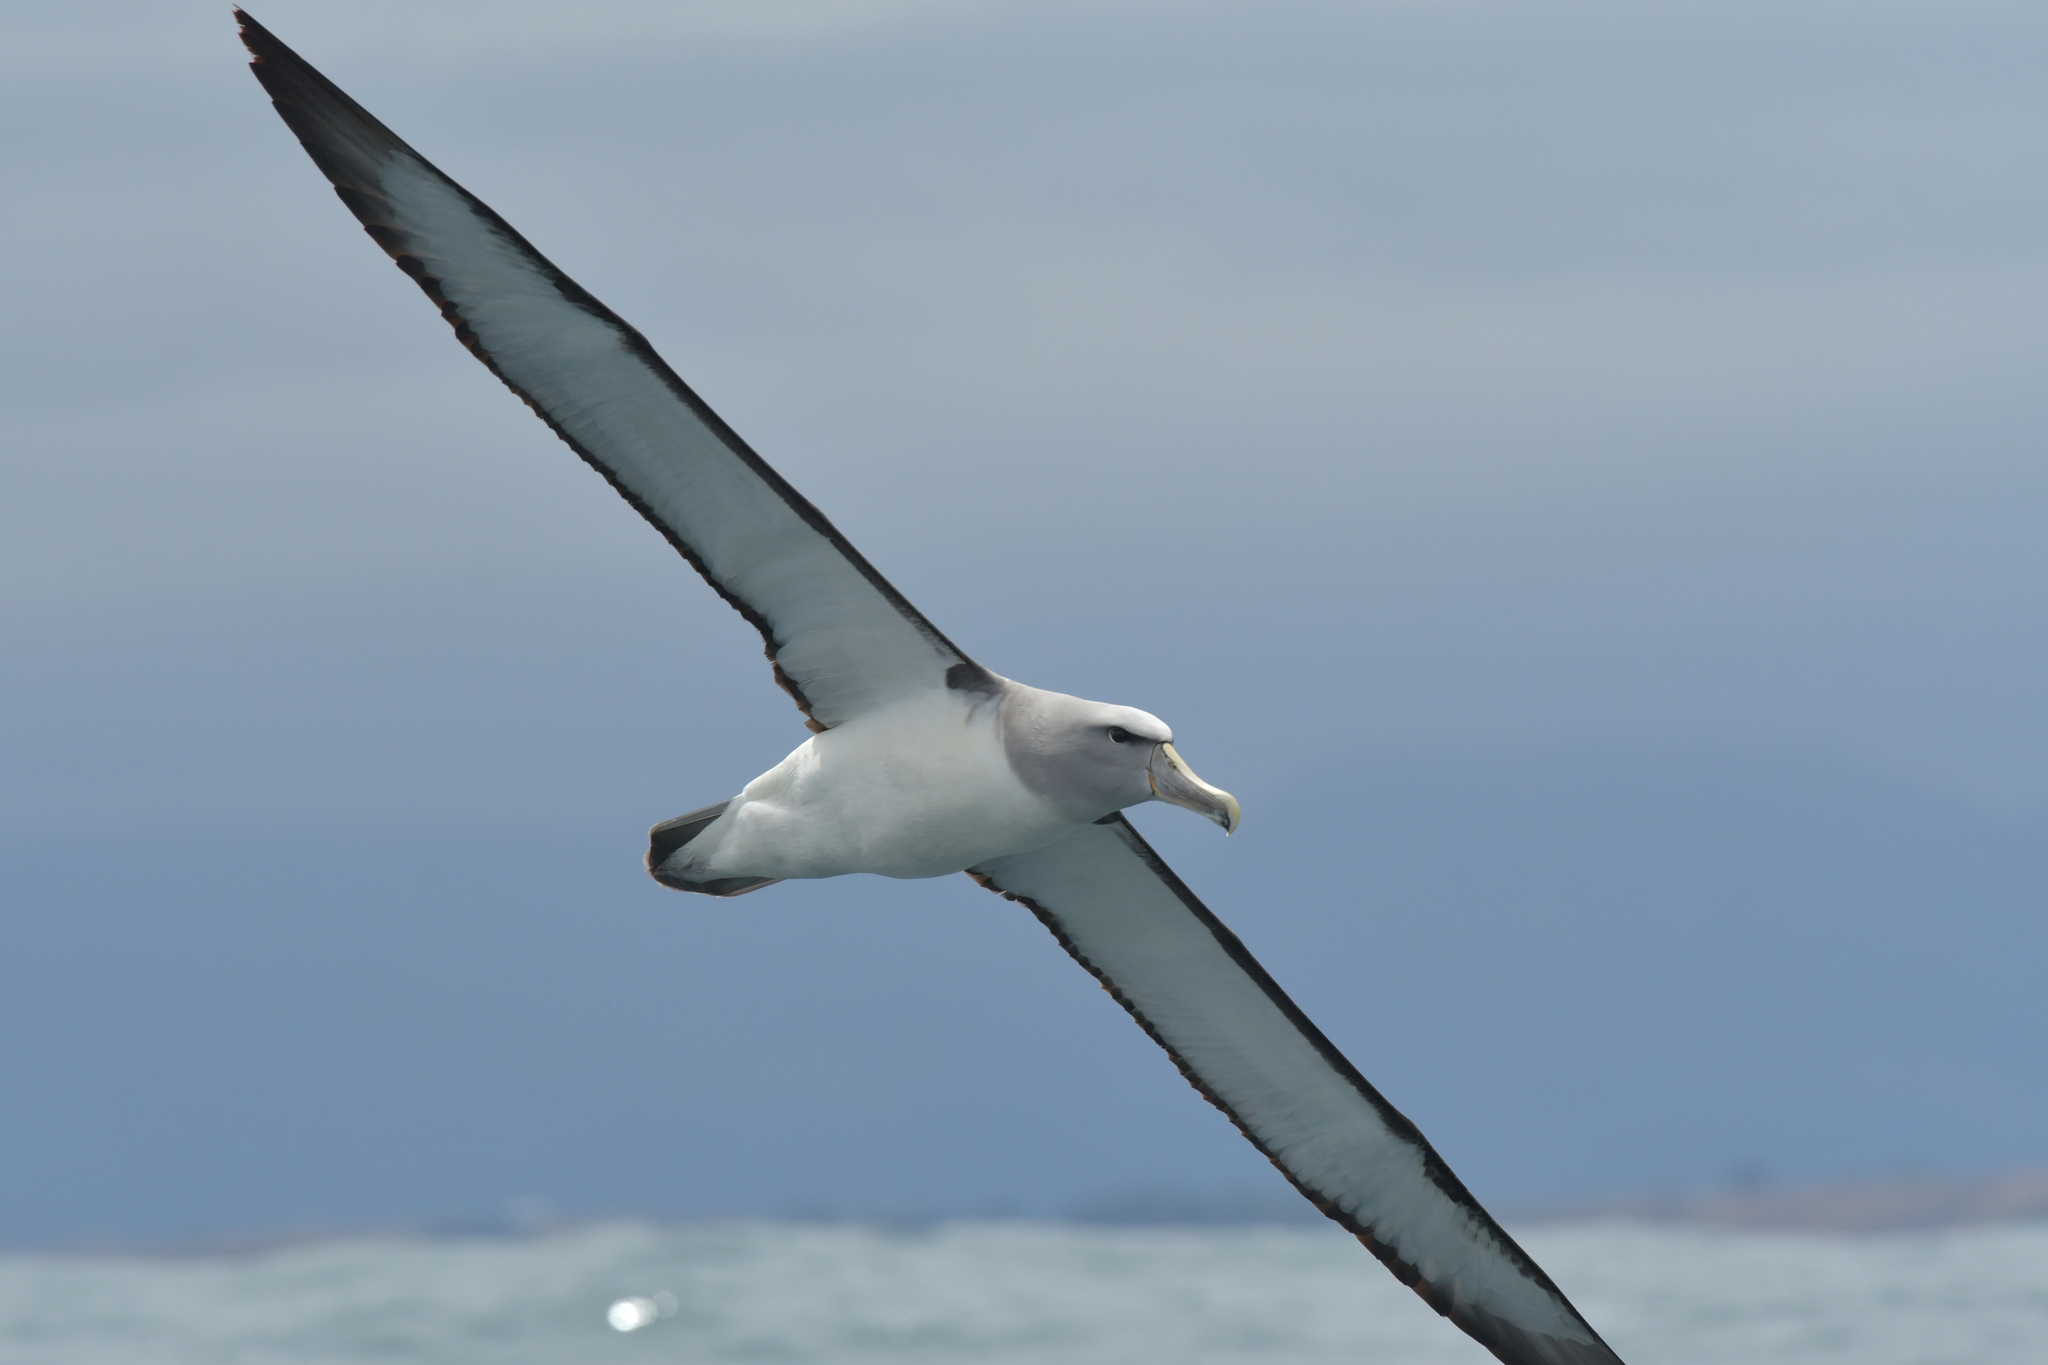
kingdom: Animalia
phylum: Chordata
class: Aves
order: Procellariiformes
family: Diomedeidae
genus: Thalassarche
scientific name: Thalassarche salvini
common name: Salvin's albatross
